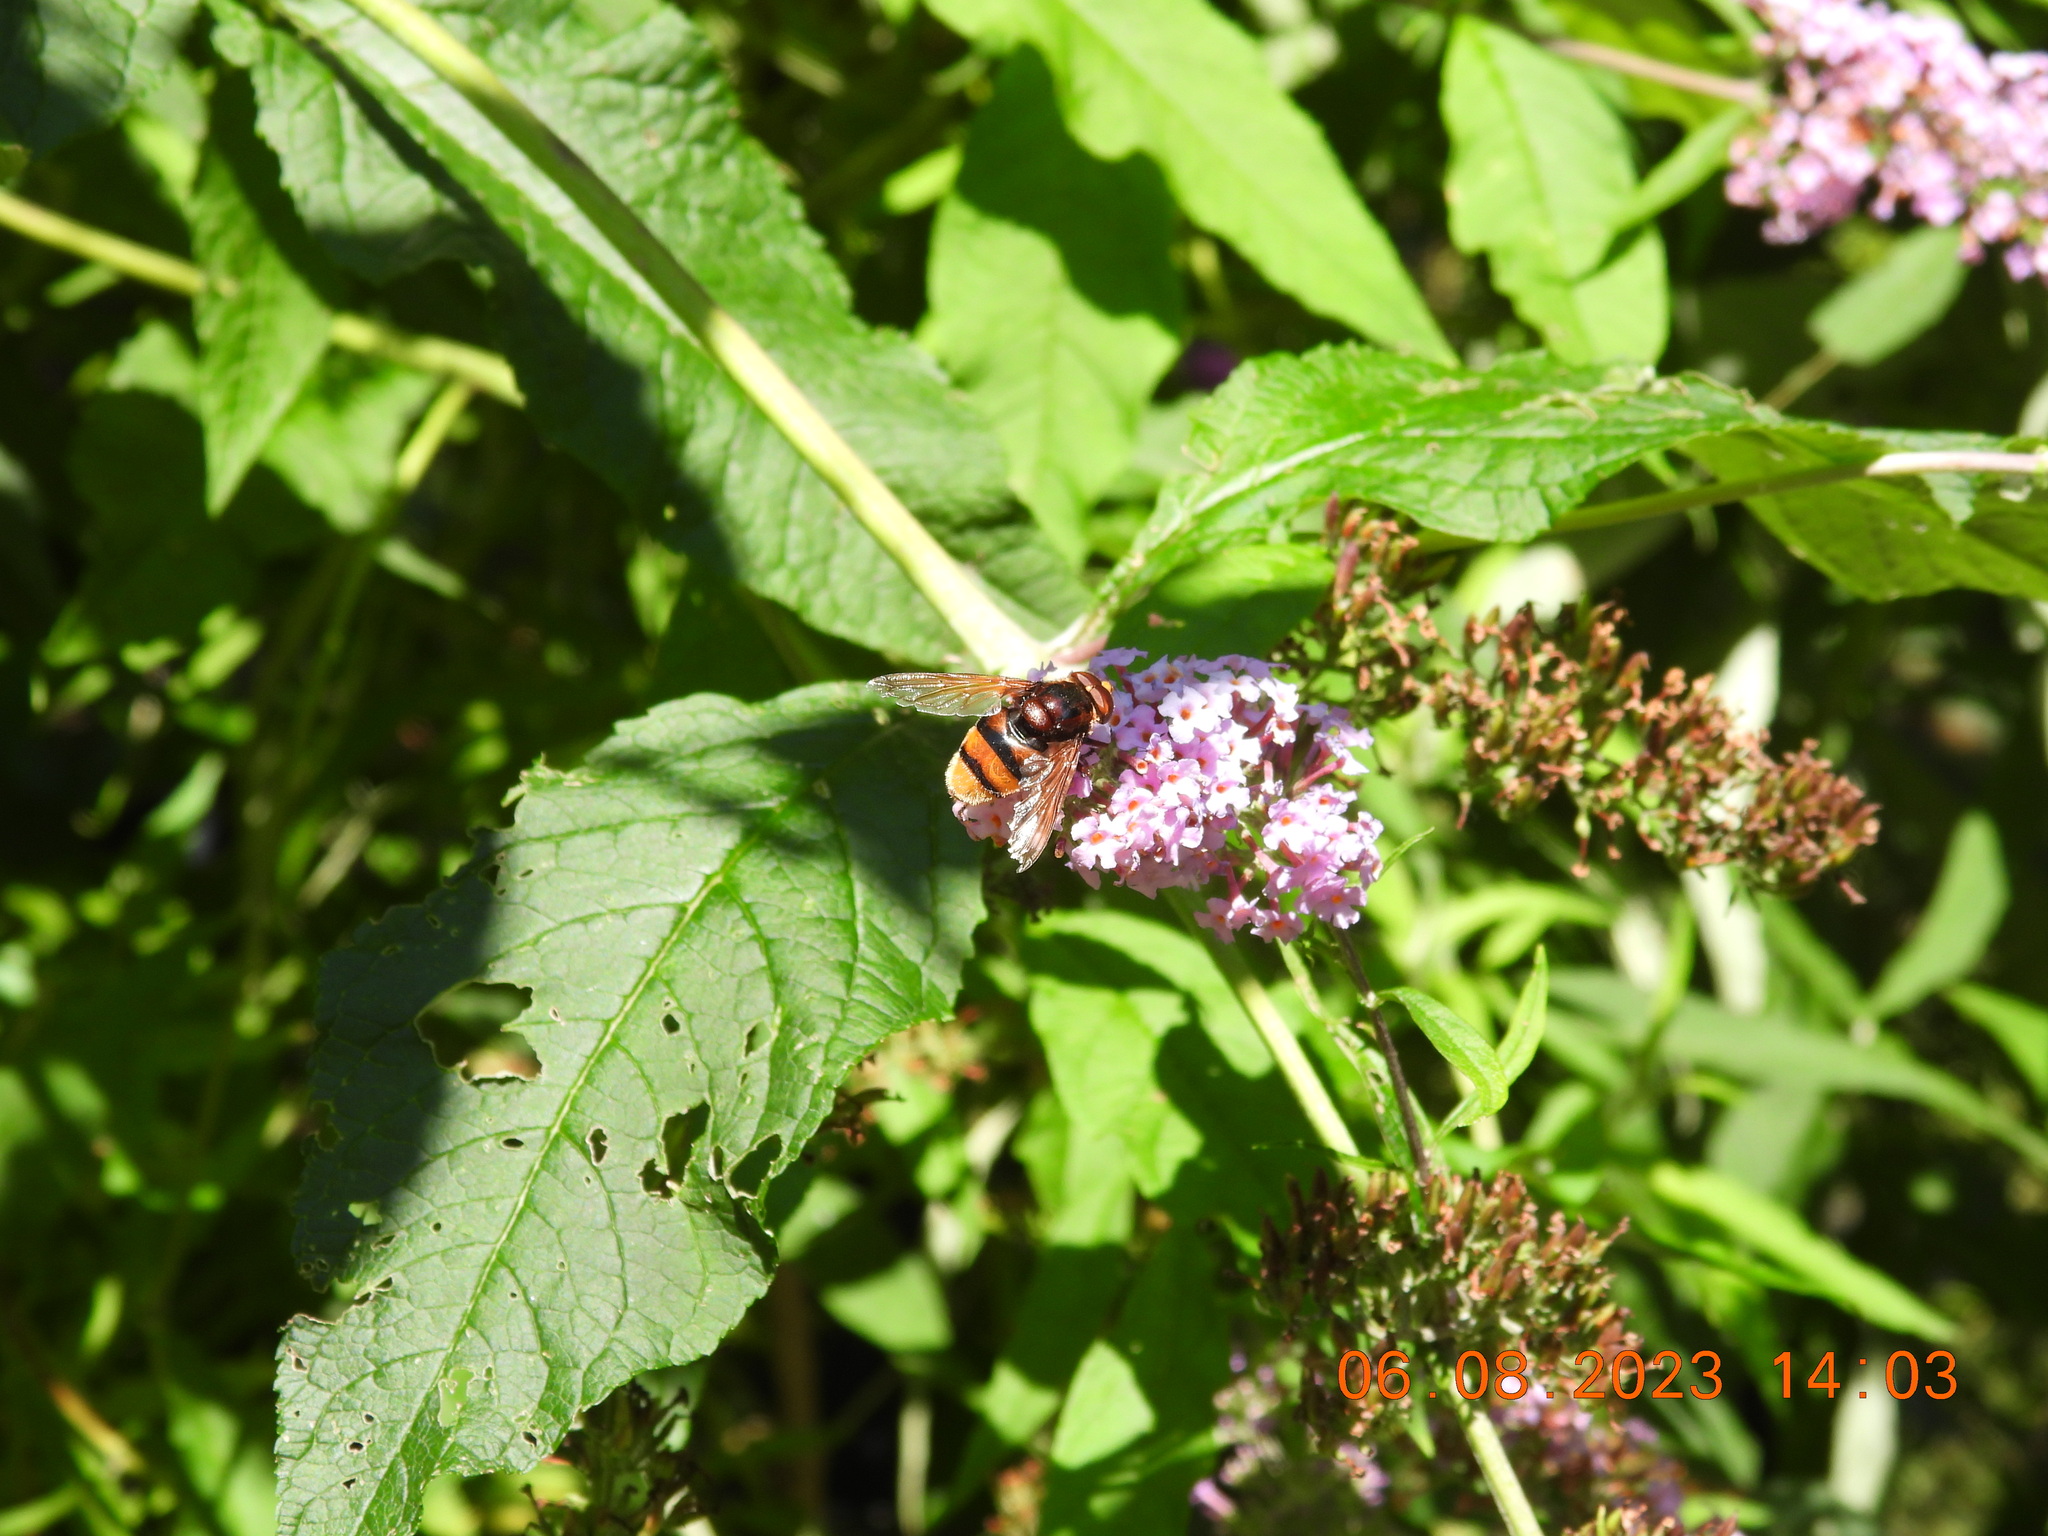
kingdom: Animalia
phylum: Arthropoda
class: Insecta
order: Diptera
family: Syrphidae
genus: Volucella
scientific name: Volucella zonaria
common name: Hornet hoverfly
